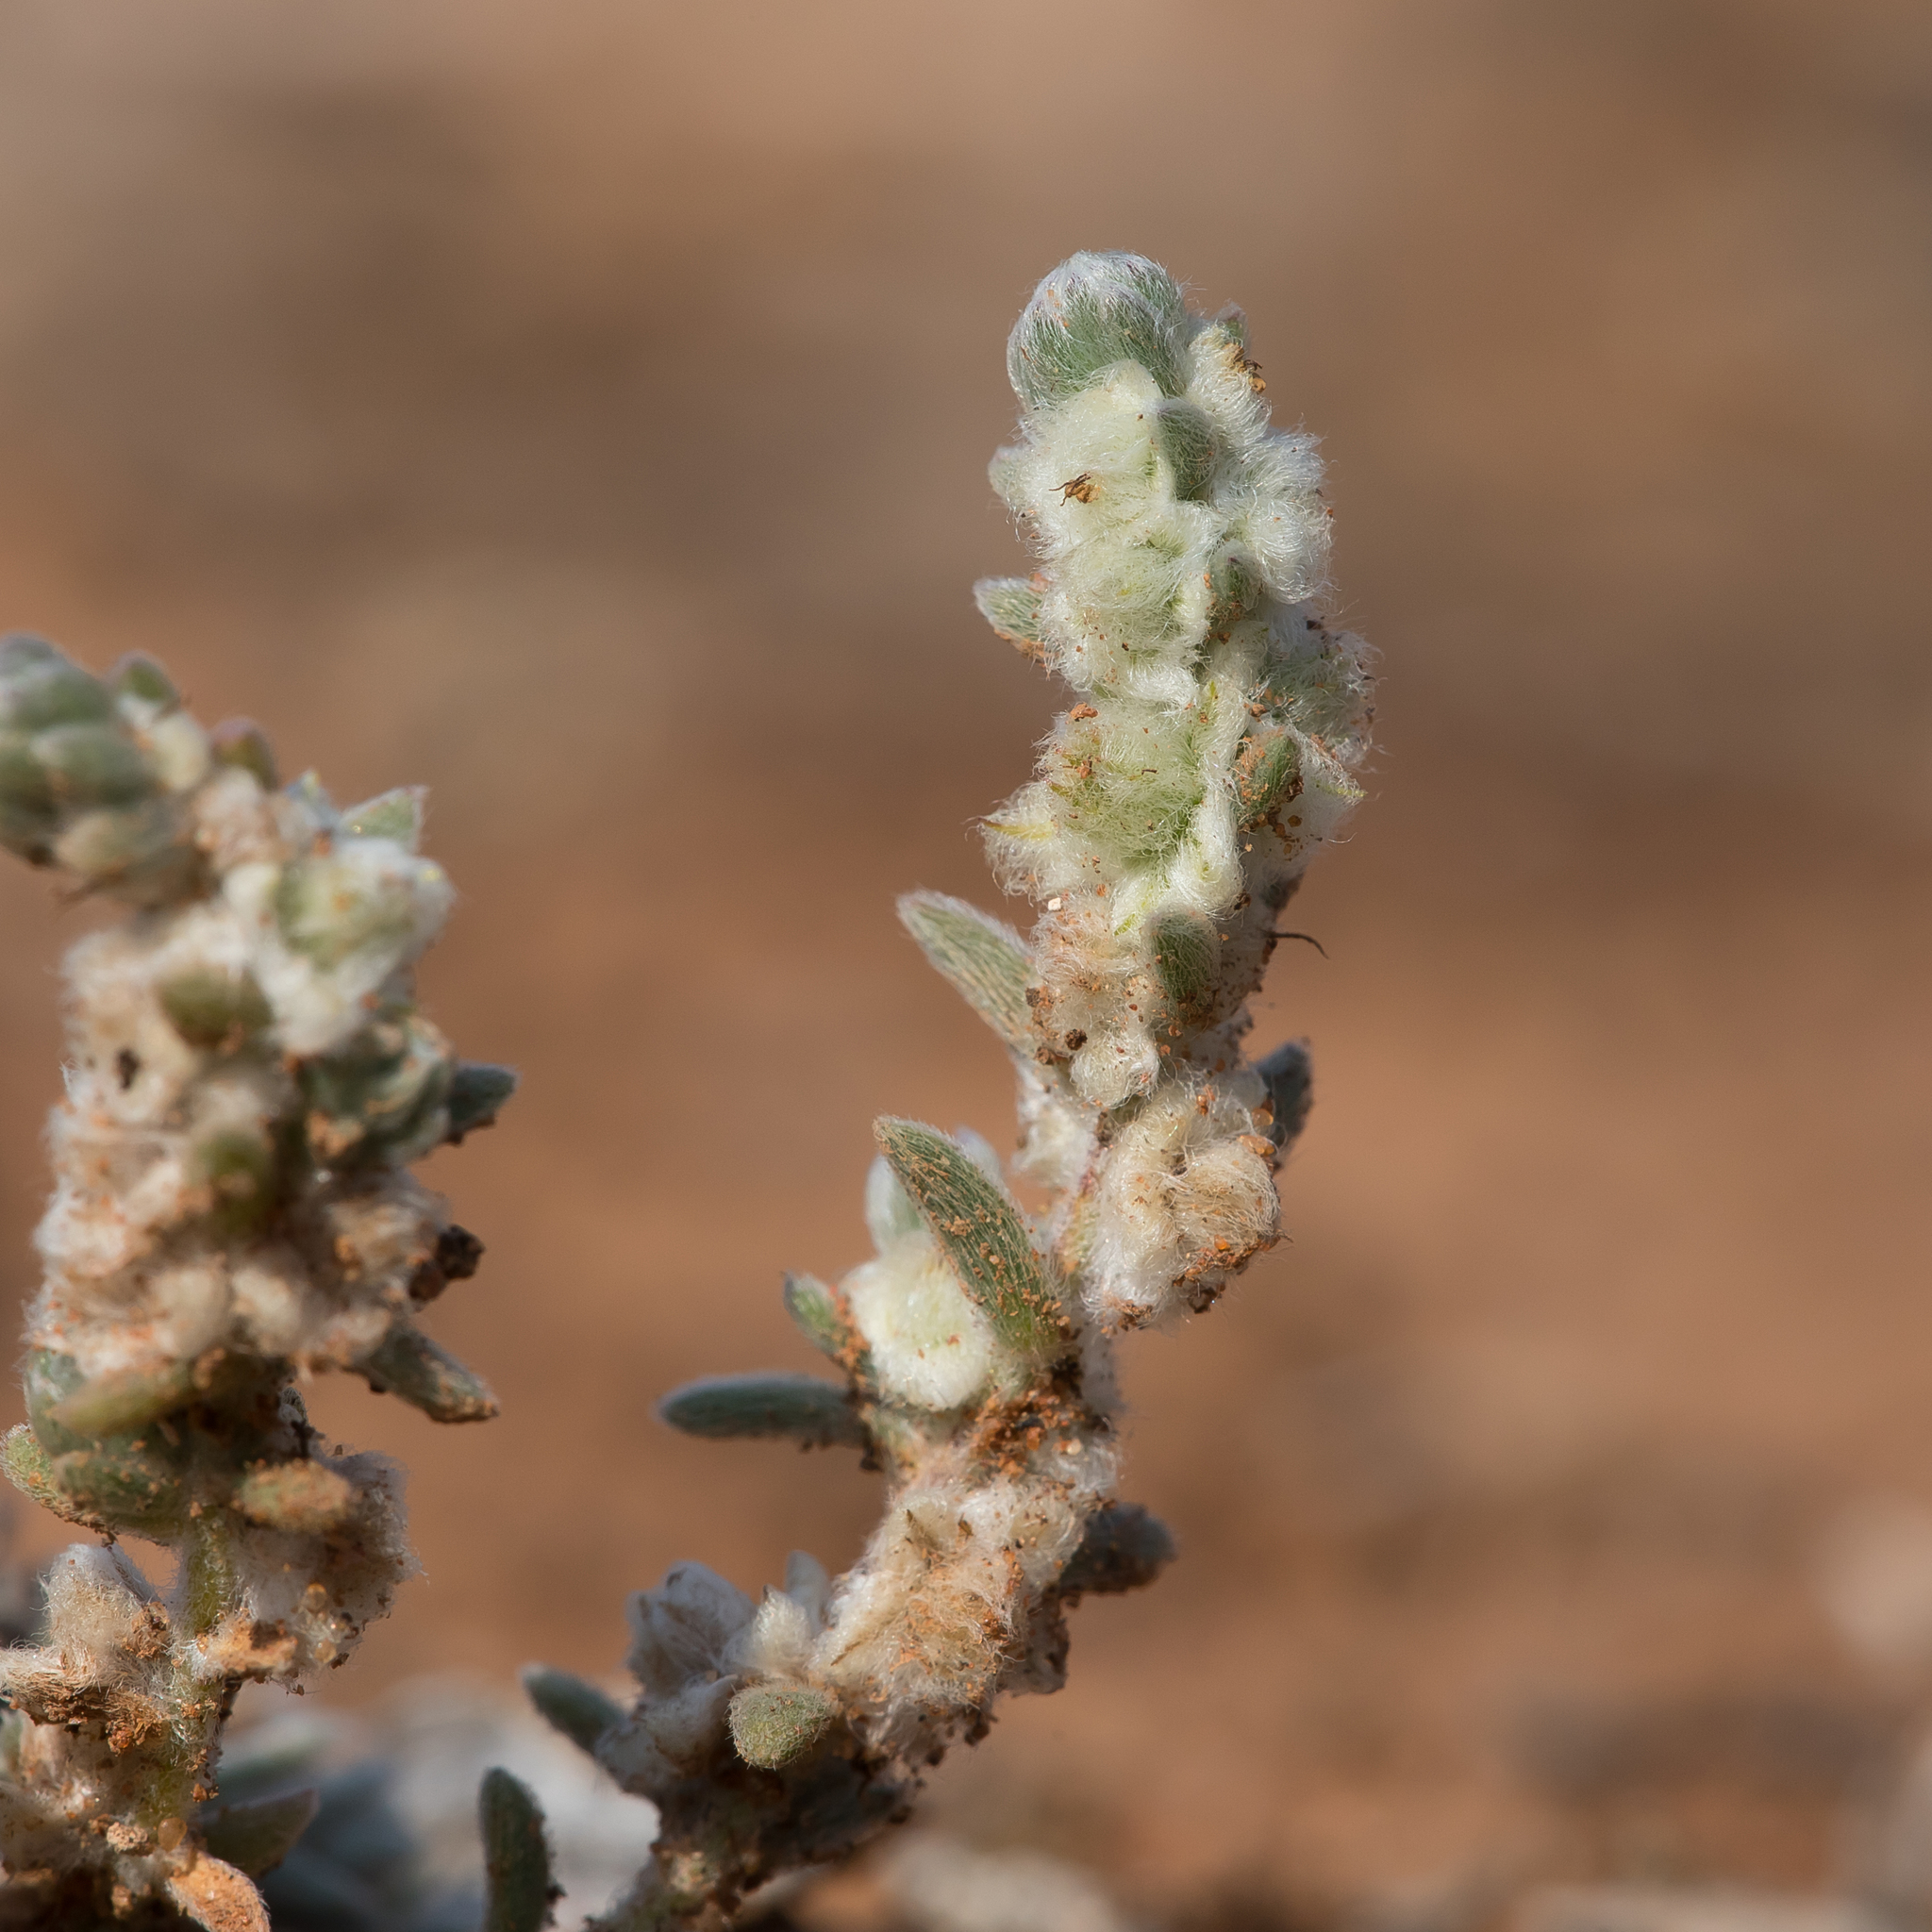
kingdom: Plantae
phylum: Tracheophyta
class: Magnoliopsida
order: Caryophyllales
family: Amaranthaceae
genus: Maireana
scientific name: Maireana sclerolaenoides
